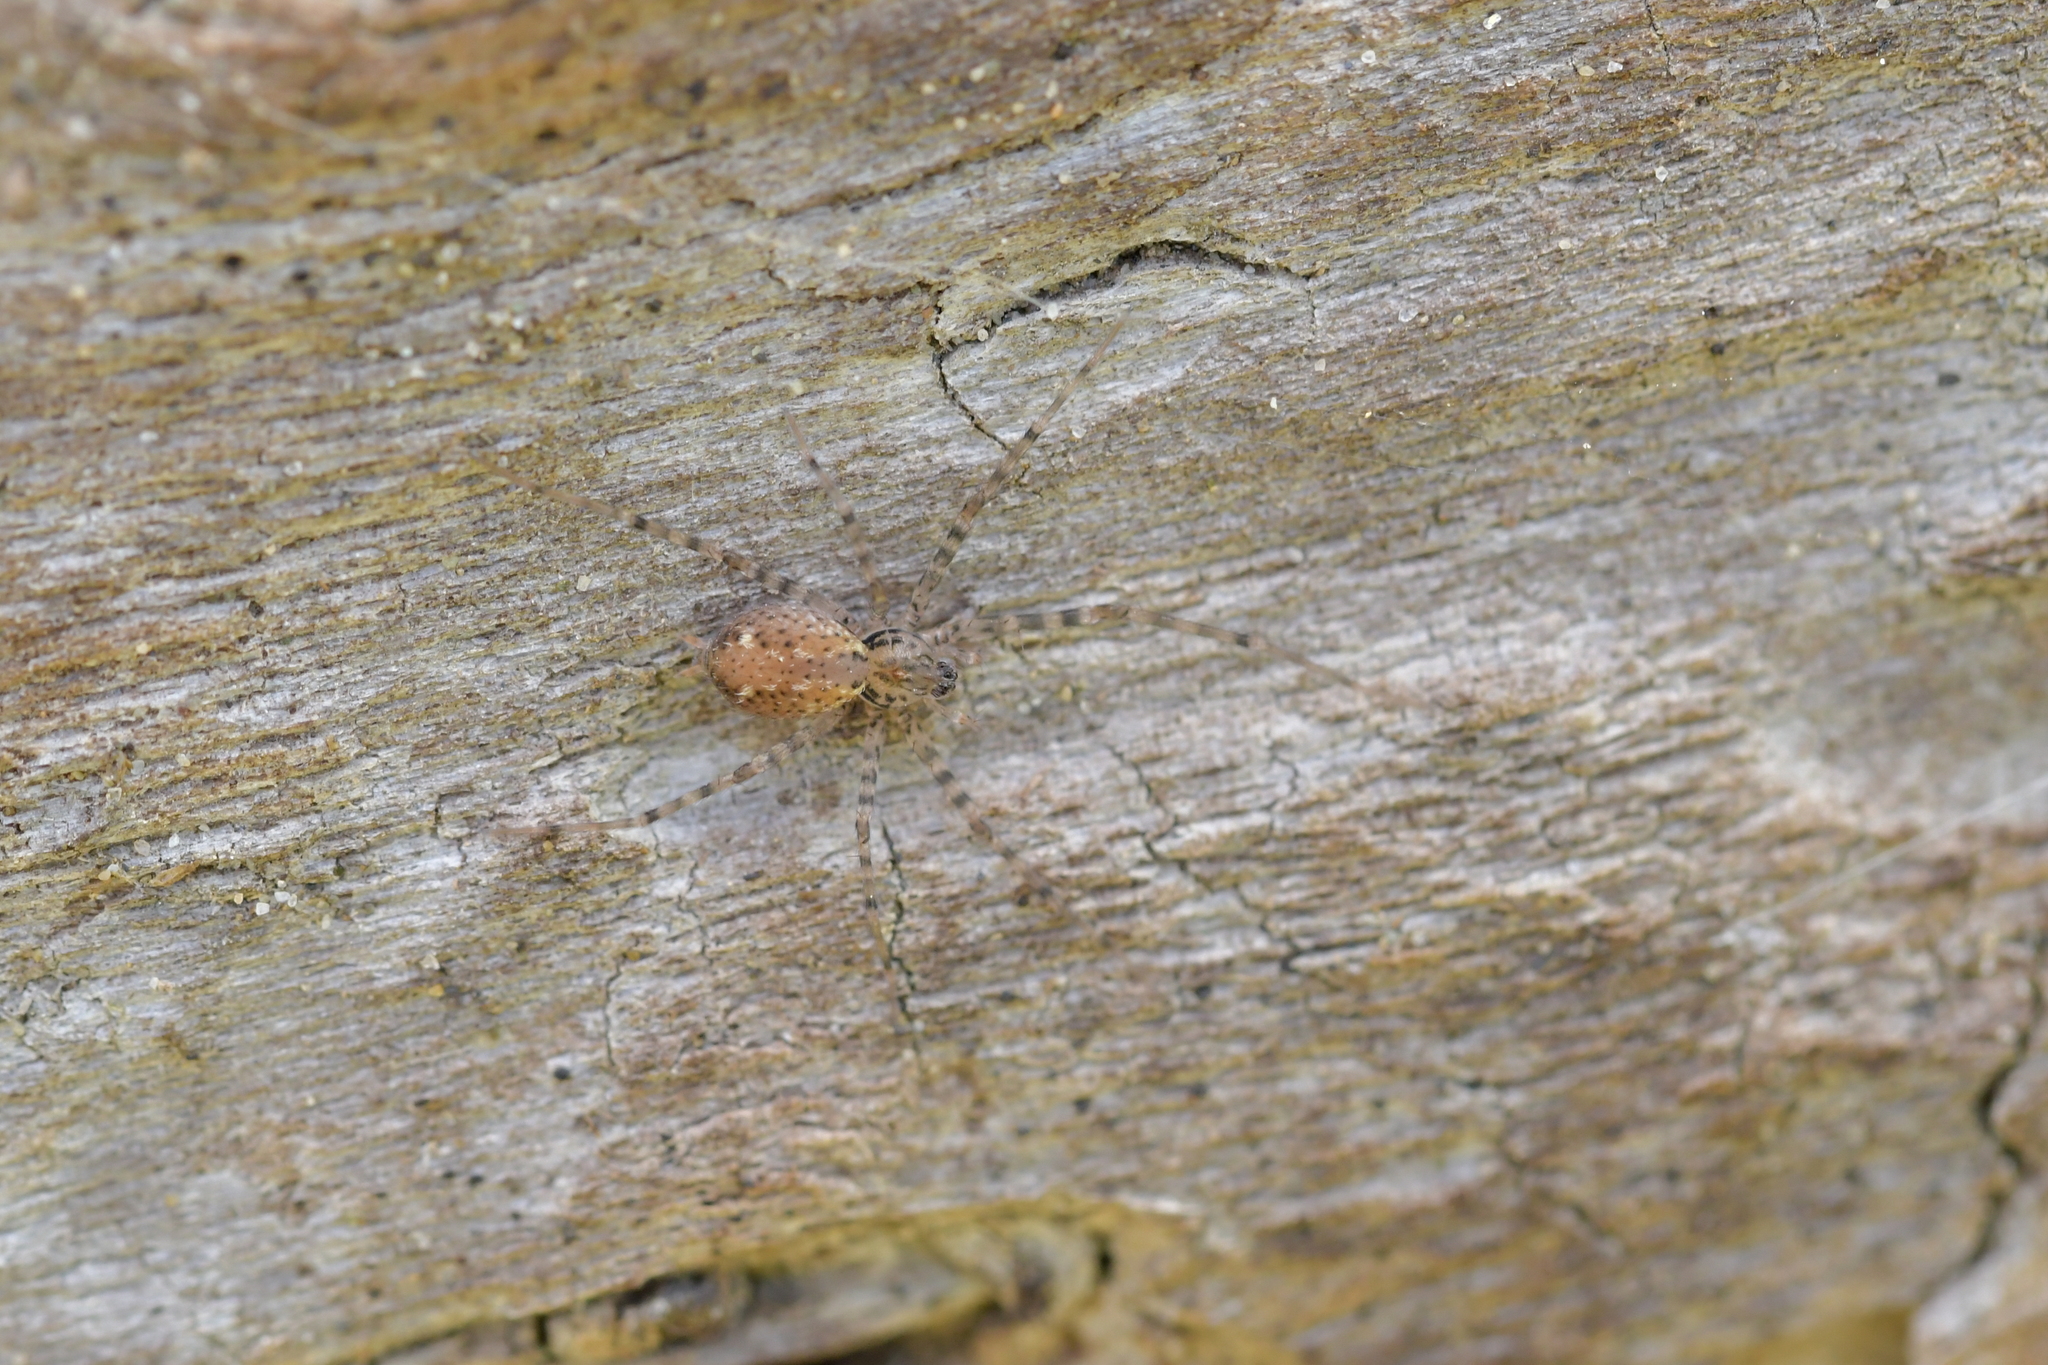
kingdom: Animalia
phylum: Arthropoda
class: Arachnida
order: Araneae
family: Stiphidiidae
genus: Stiphidion
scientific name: Stiphidion facetum
